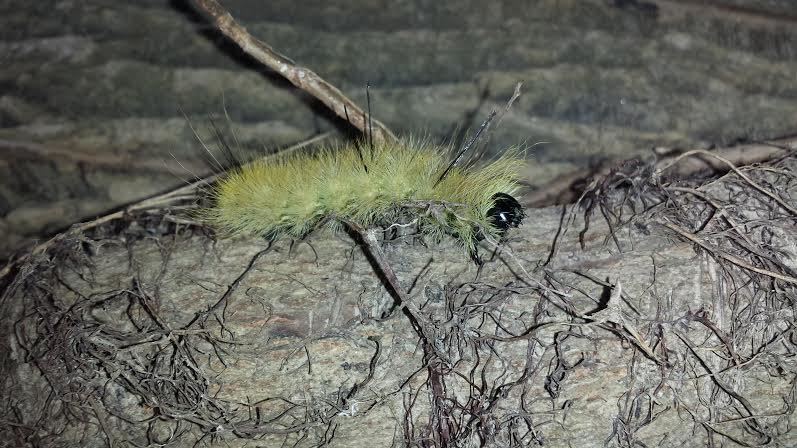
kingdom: Animalia
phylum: Arthropoda
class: Insecta
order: Lepidoptera
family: Noctuidae
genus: Acronicta
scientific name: Acronicta americana
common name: American dagger
